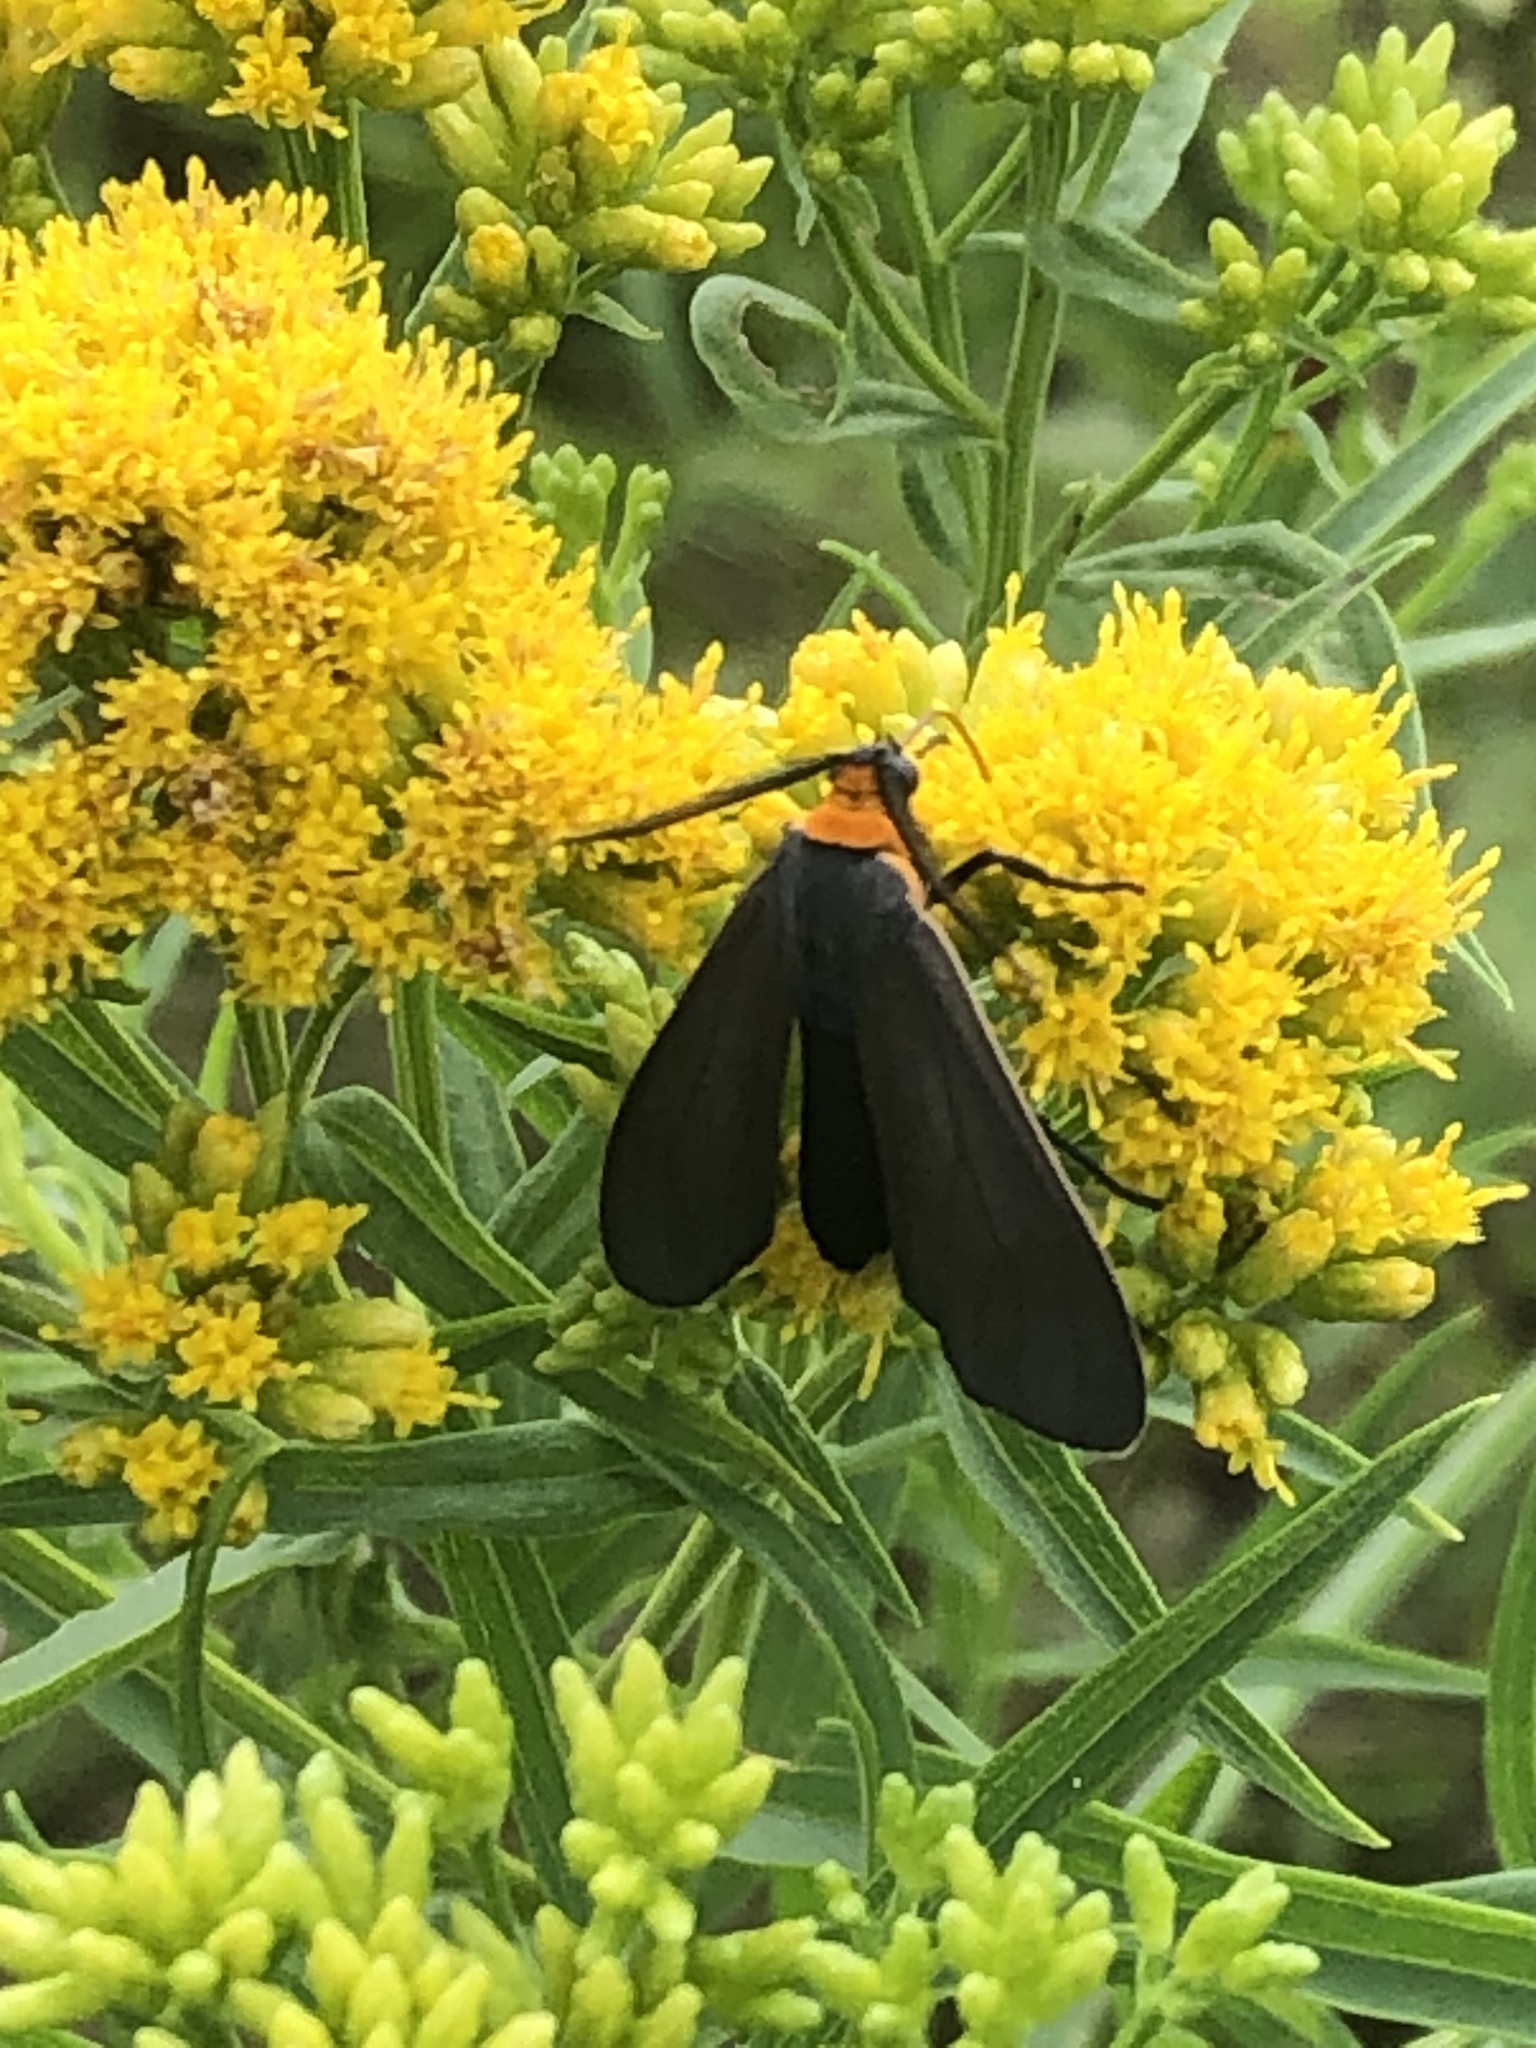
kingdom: Animalia
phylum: Arthropoda
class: Insecta
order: Lepidoptera
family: Erebidae
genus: Cisseps
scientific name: Cisseps fulvicollis
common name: Yellow-collared scape moth
